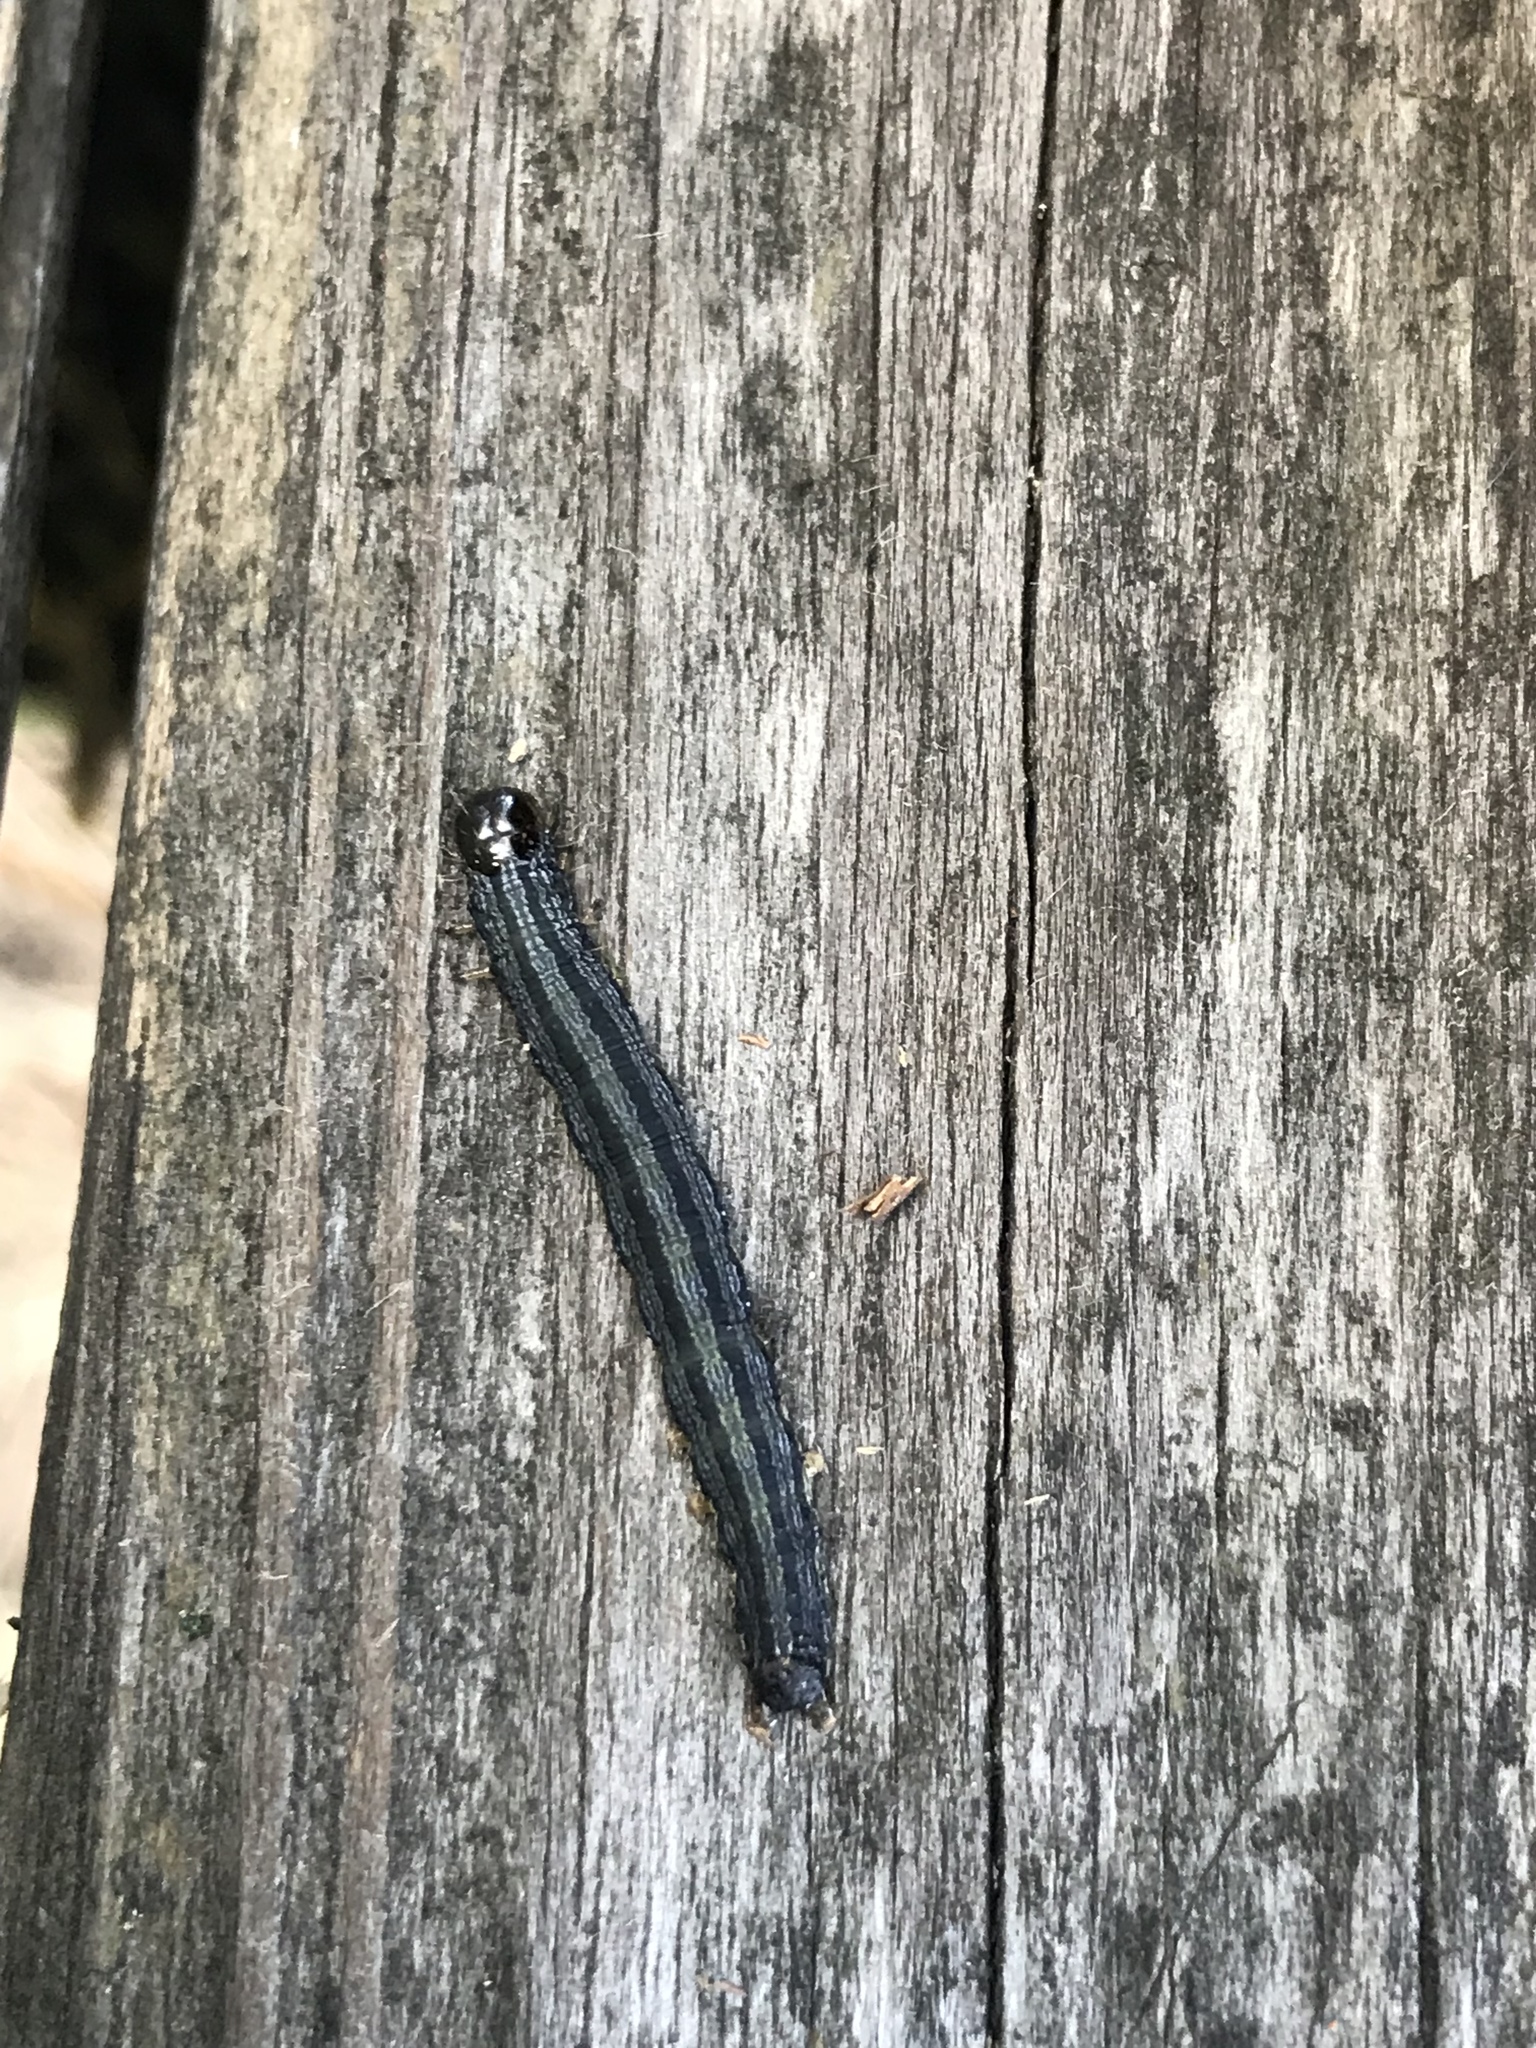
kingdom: Animalia
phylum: Arthropoda
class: Insecta
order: Lepidoptera
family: Noctuidae
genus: Spodoptera
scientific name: Spodoptera frugiperda
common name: Fall armyworm
